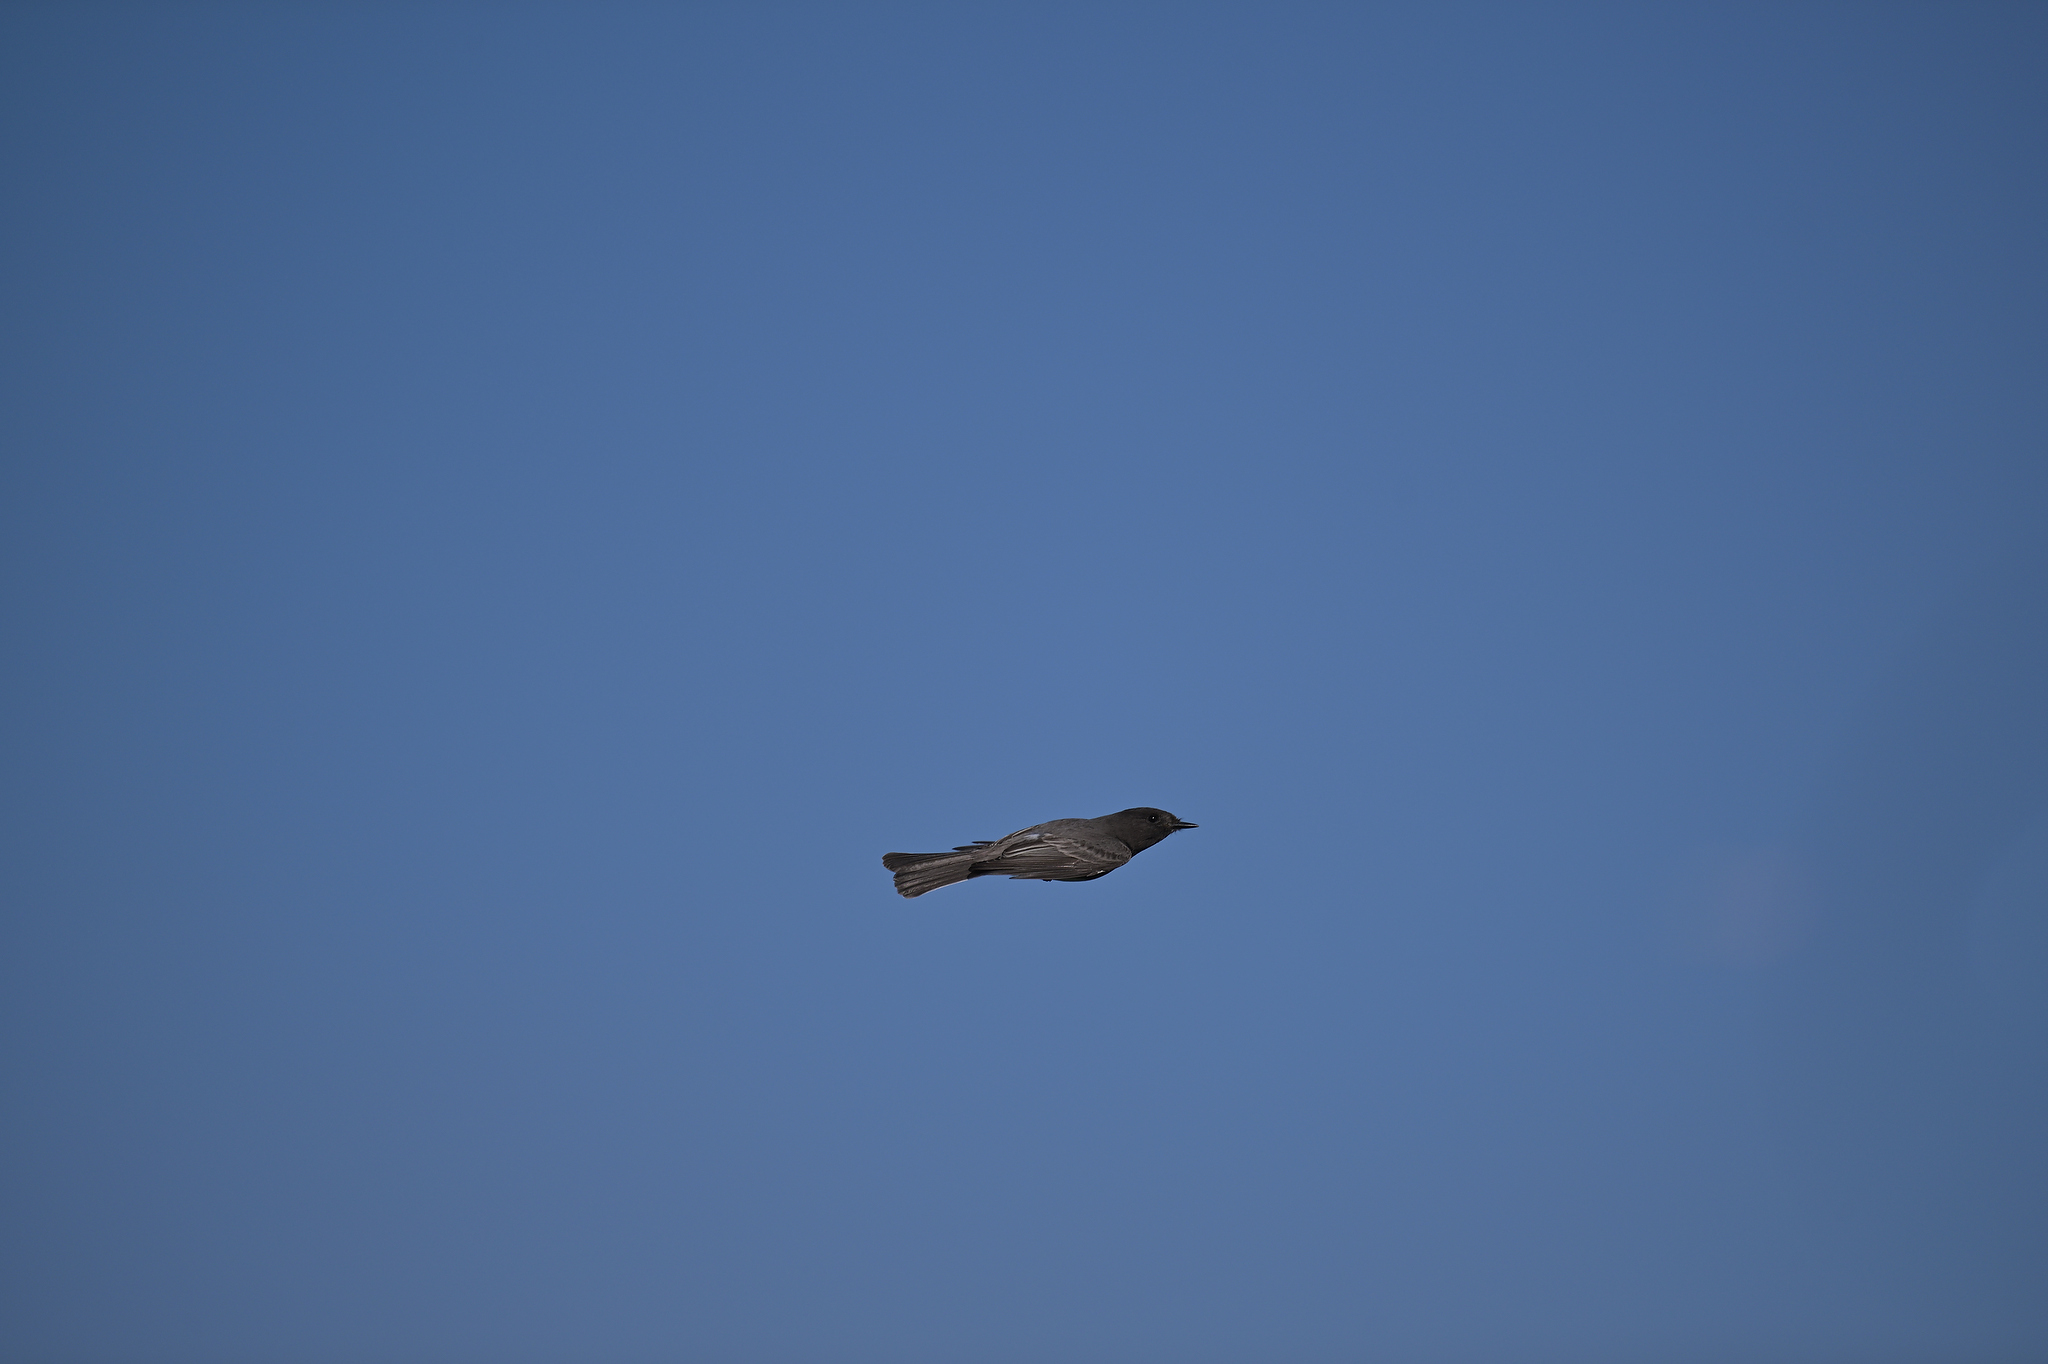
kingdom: Animalia
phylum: Chordata
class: Aves
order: Passeriformes
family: Tyrannidae
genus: Sayornis
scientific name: Sayornis nigricans
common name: Black phoebe
